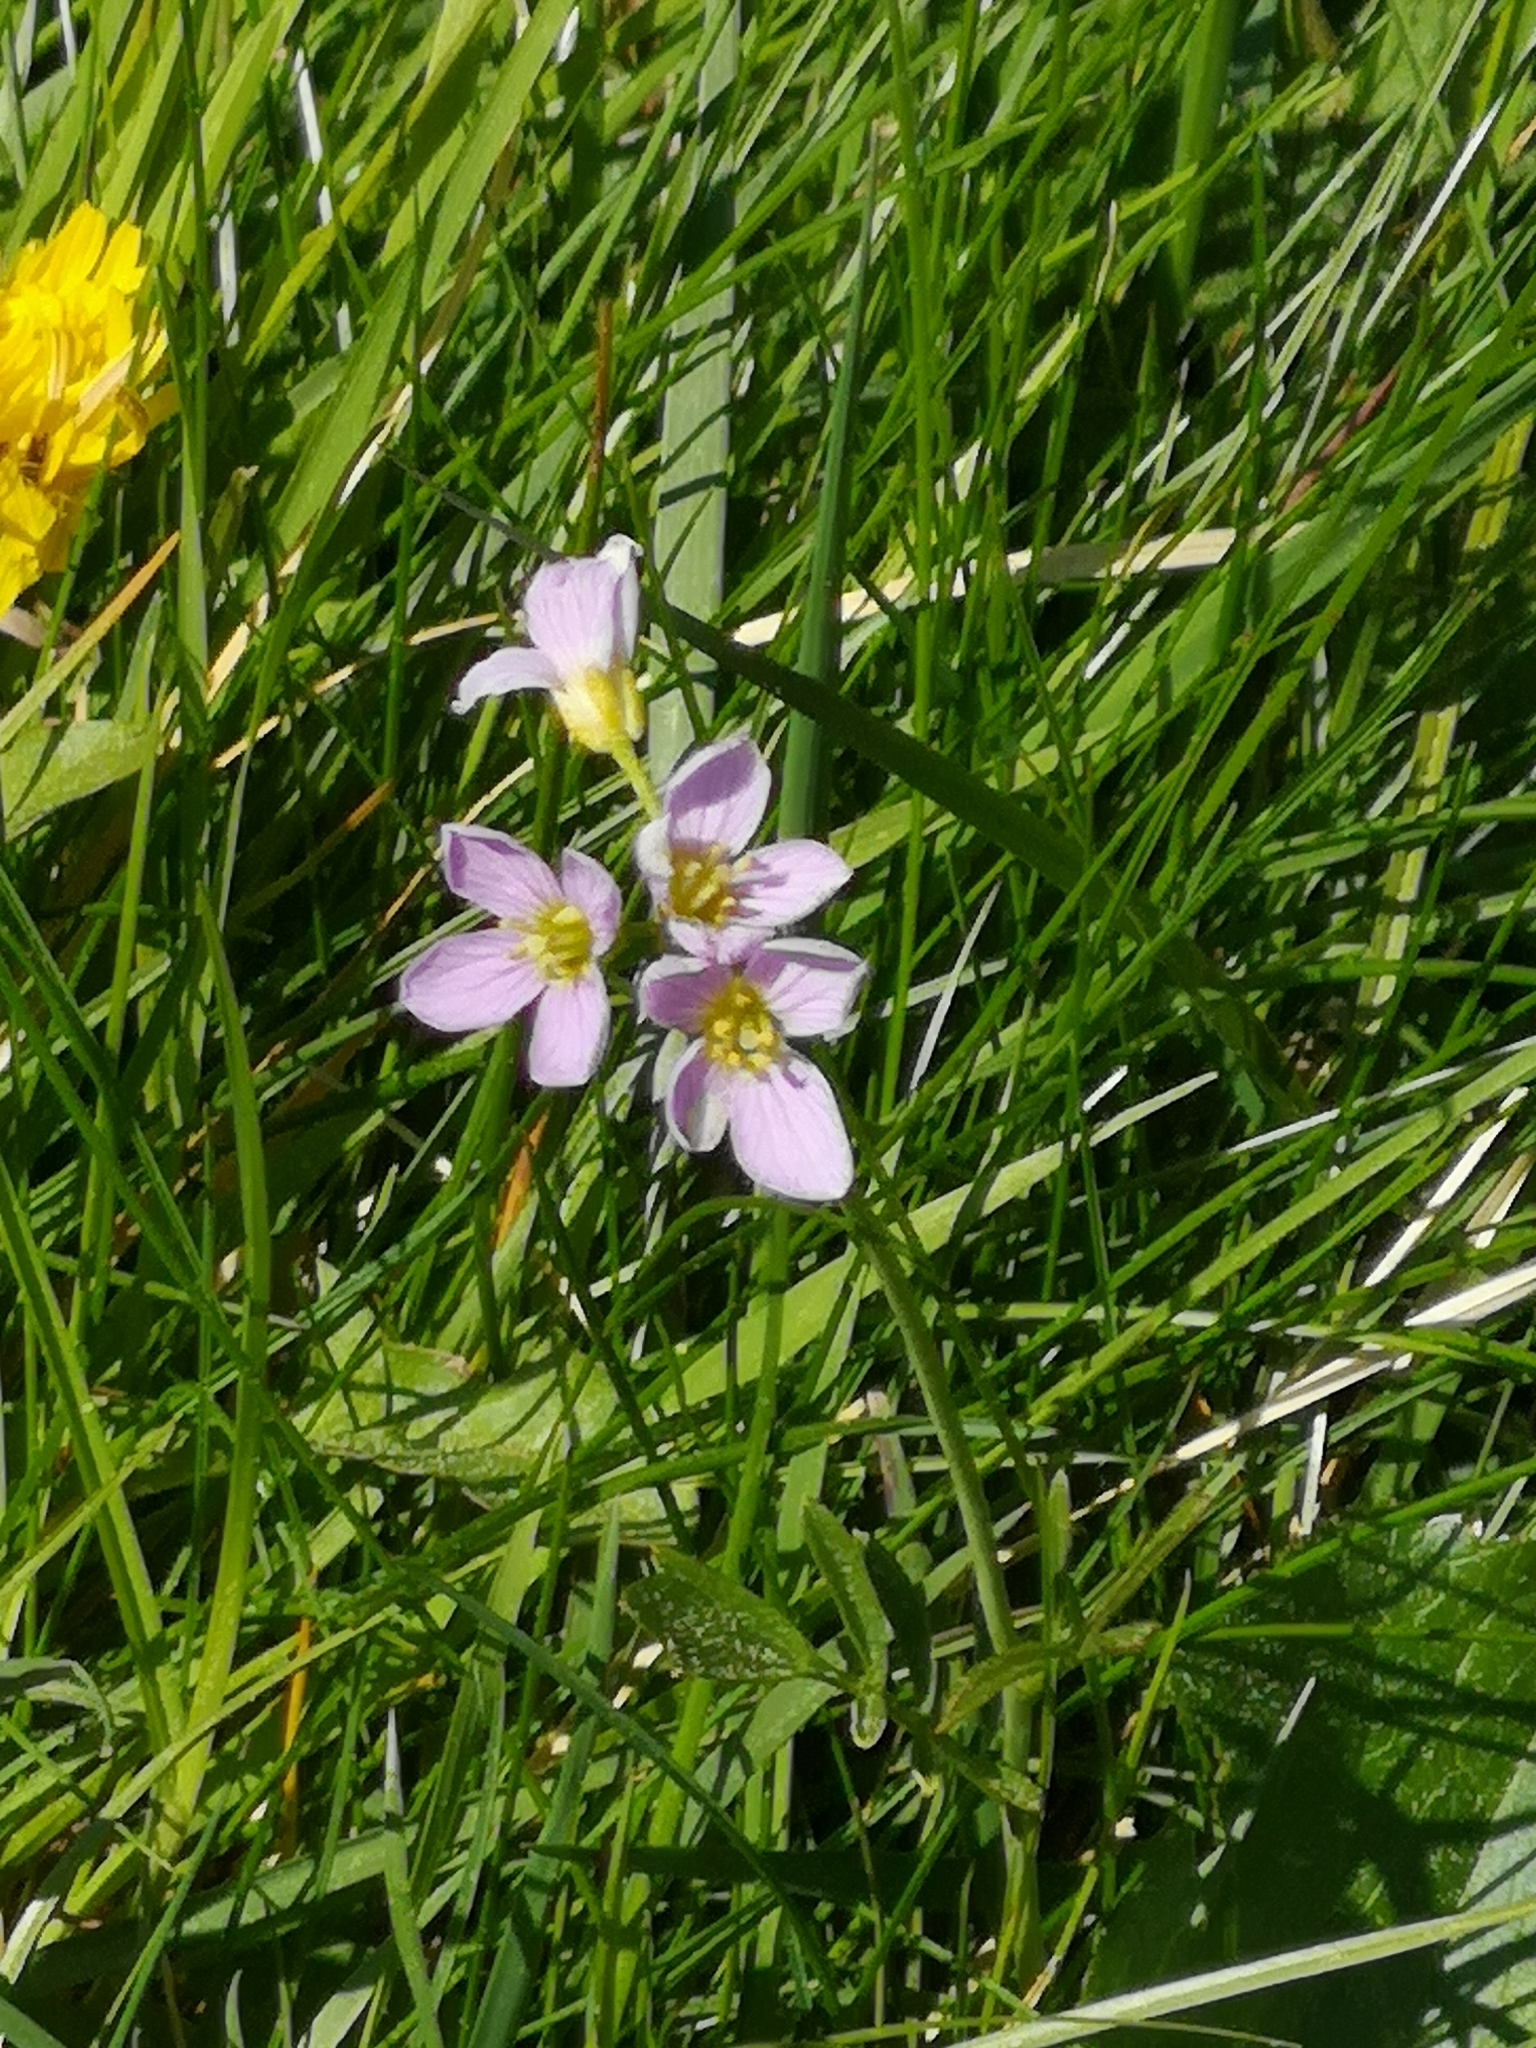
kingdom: Plantae
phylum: Tracheophyta
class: Magnoliopsida
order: Brassicales
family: Brassicaceae
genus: Cardamine
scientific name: Cardamine pratensis
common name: Cuckoo flower
